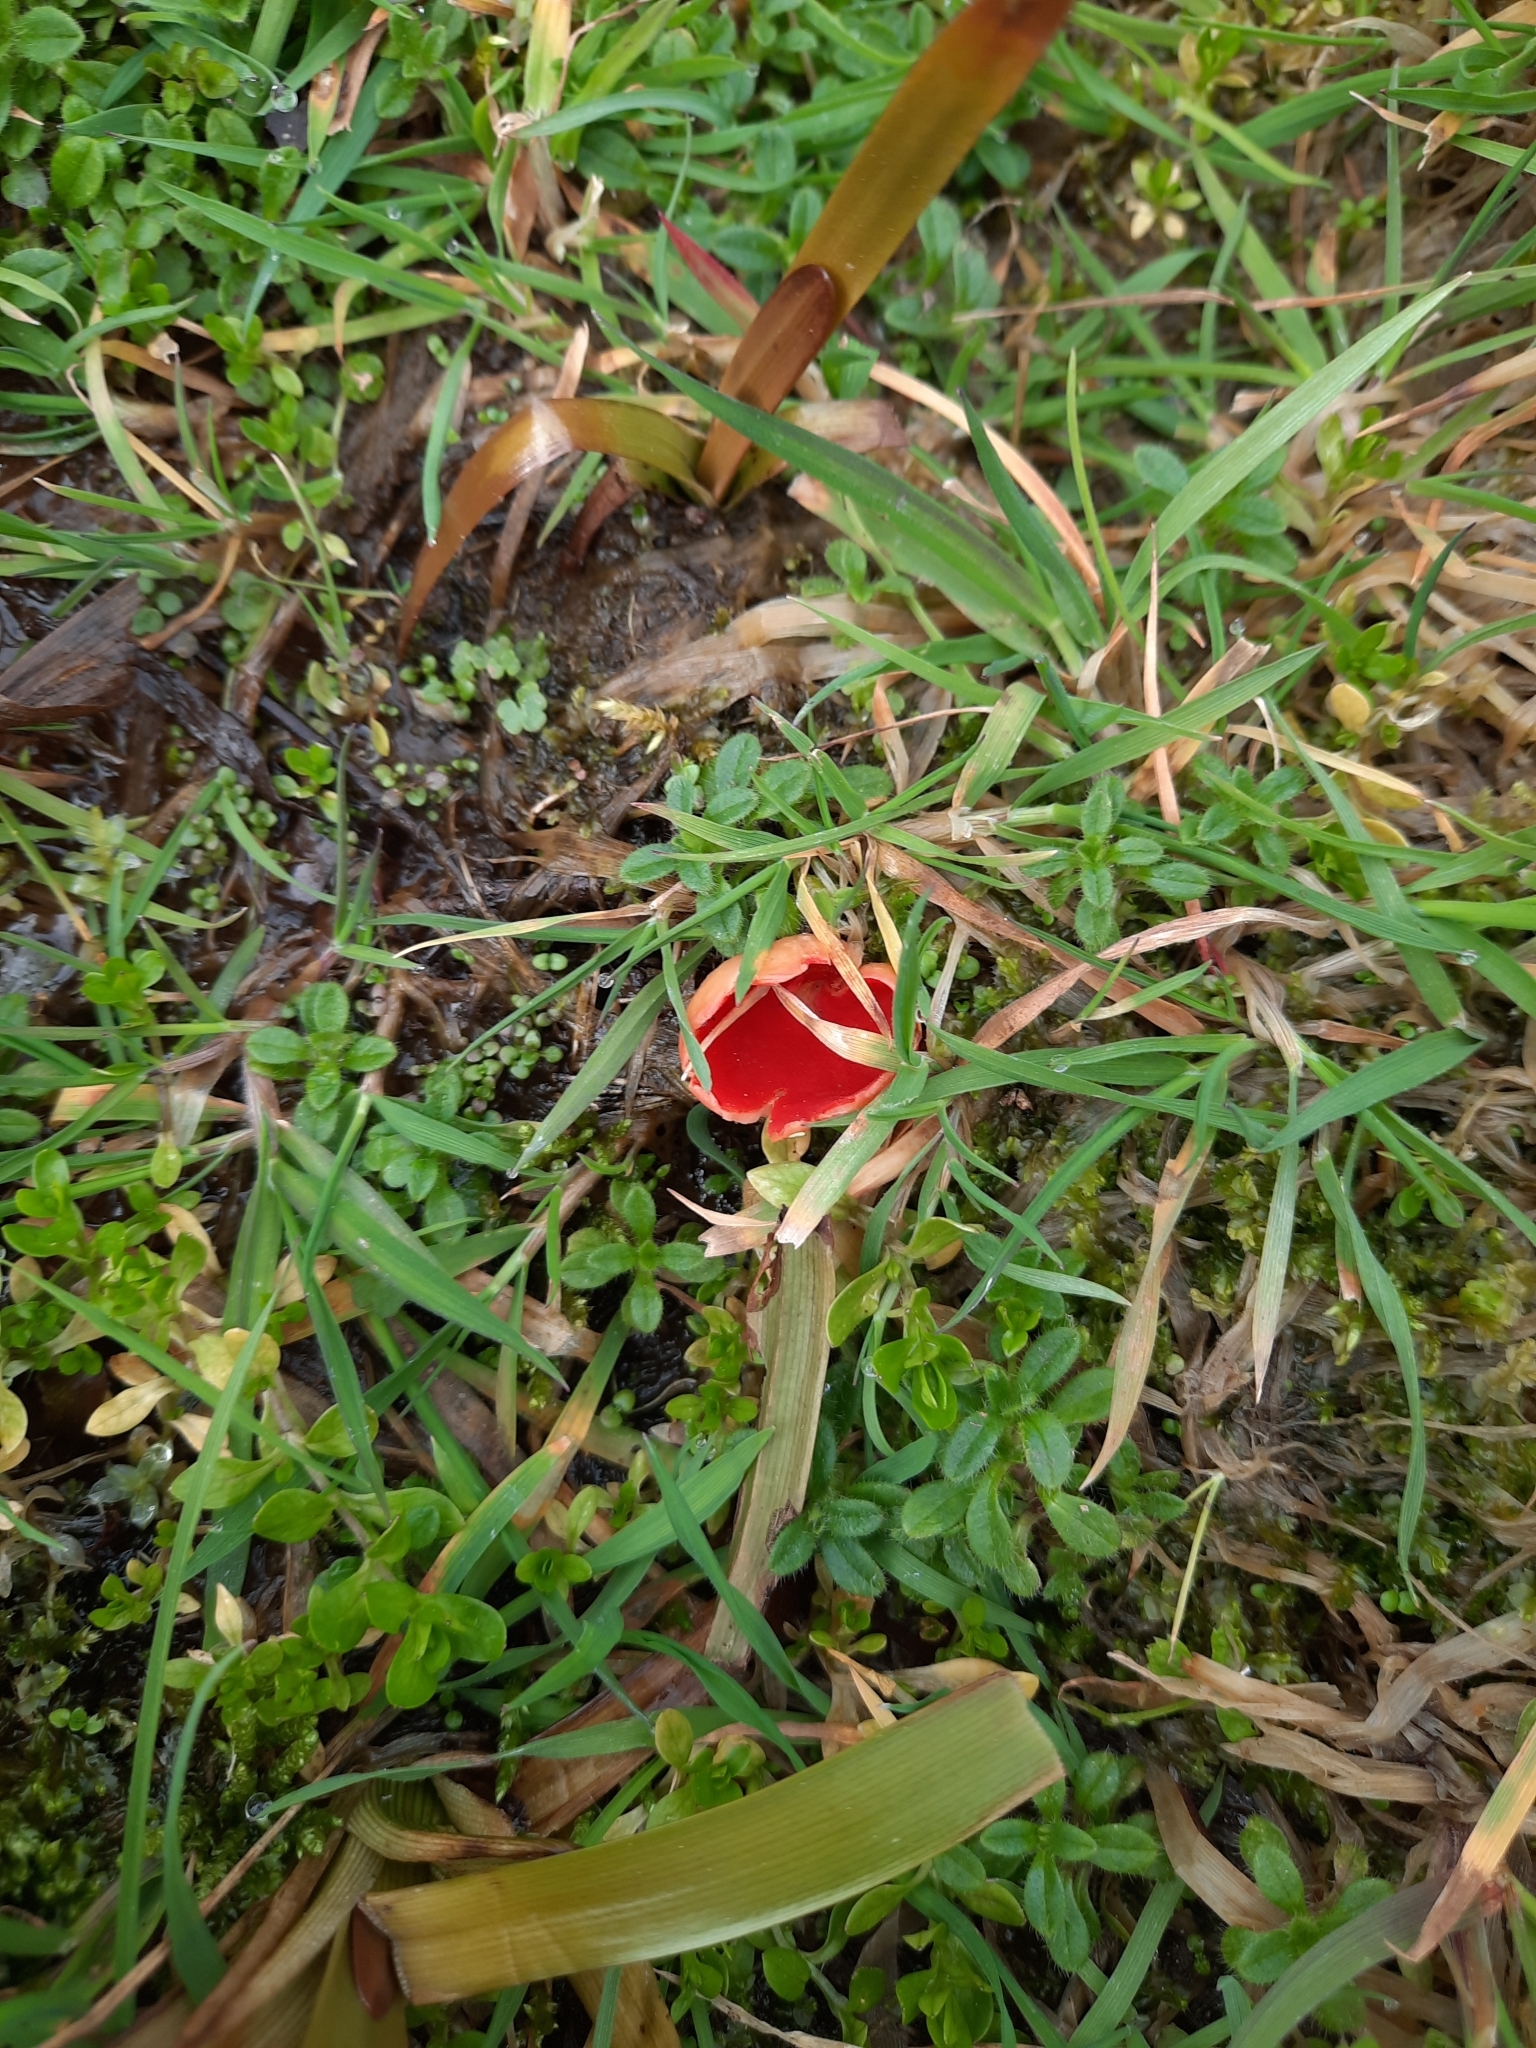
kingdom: Fungi
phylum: Ascomycota
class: Pezizomycetes
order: Pezizales
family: Sarcoscyphaceae
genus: Sarcoscypha
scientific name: Sarcoscypha
